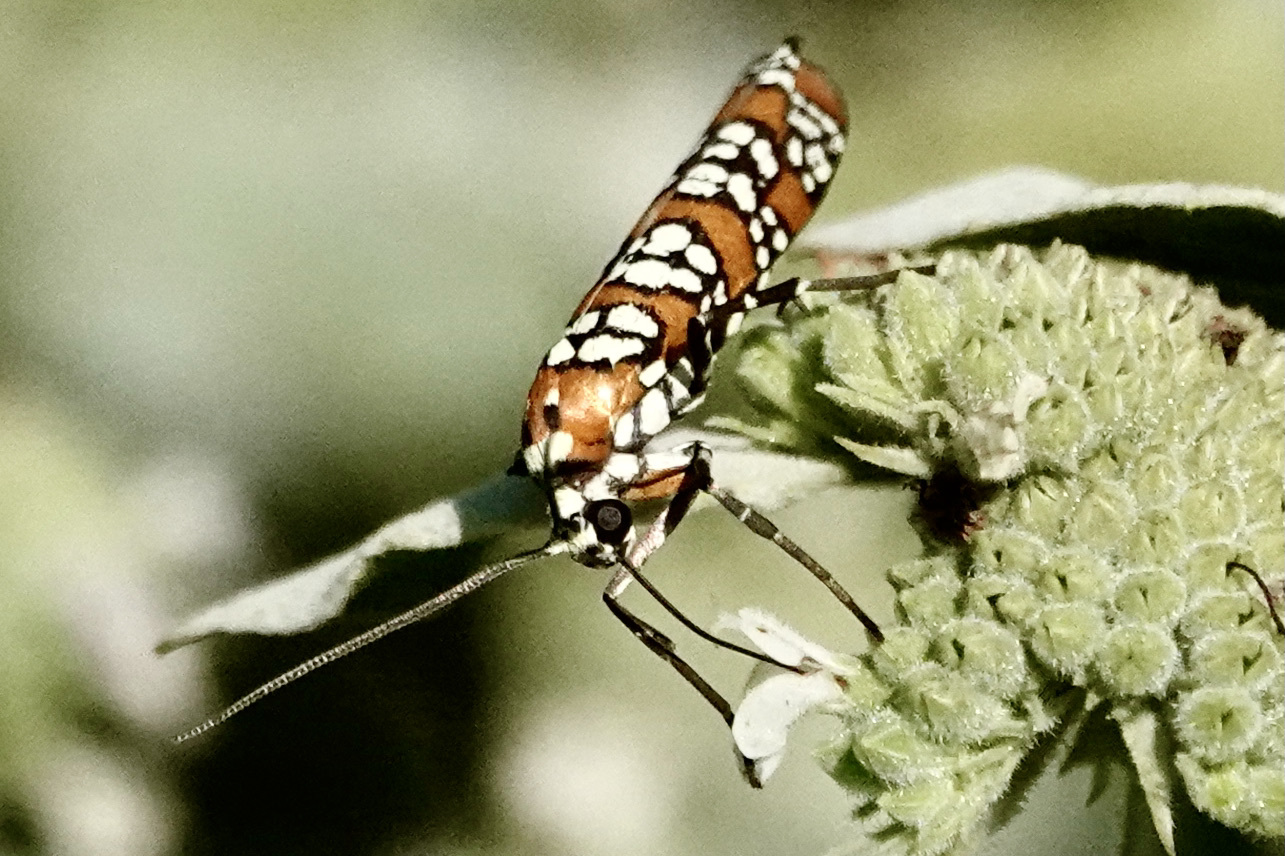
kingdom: Animalia
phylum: Arthropoda
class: Insecta
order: Lepidoptera
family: Attevidae
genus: Atteva
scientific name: Atteva punctella
